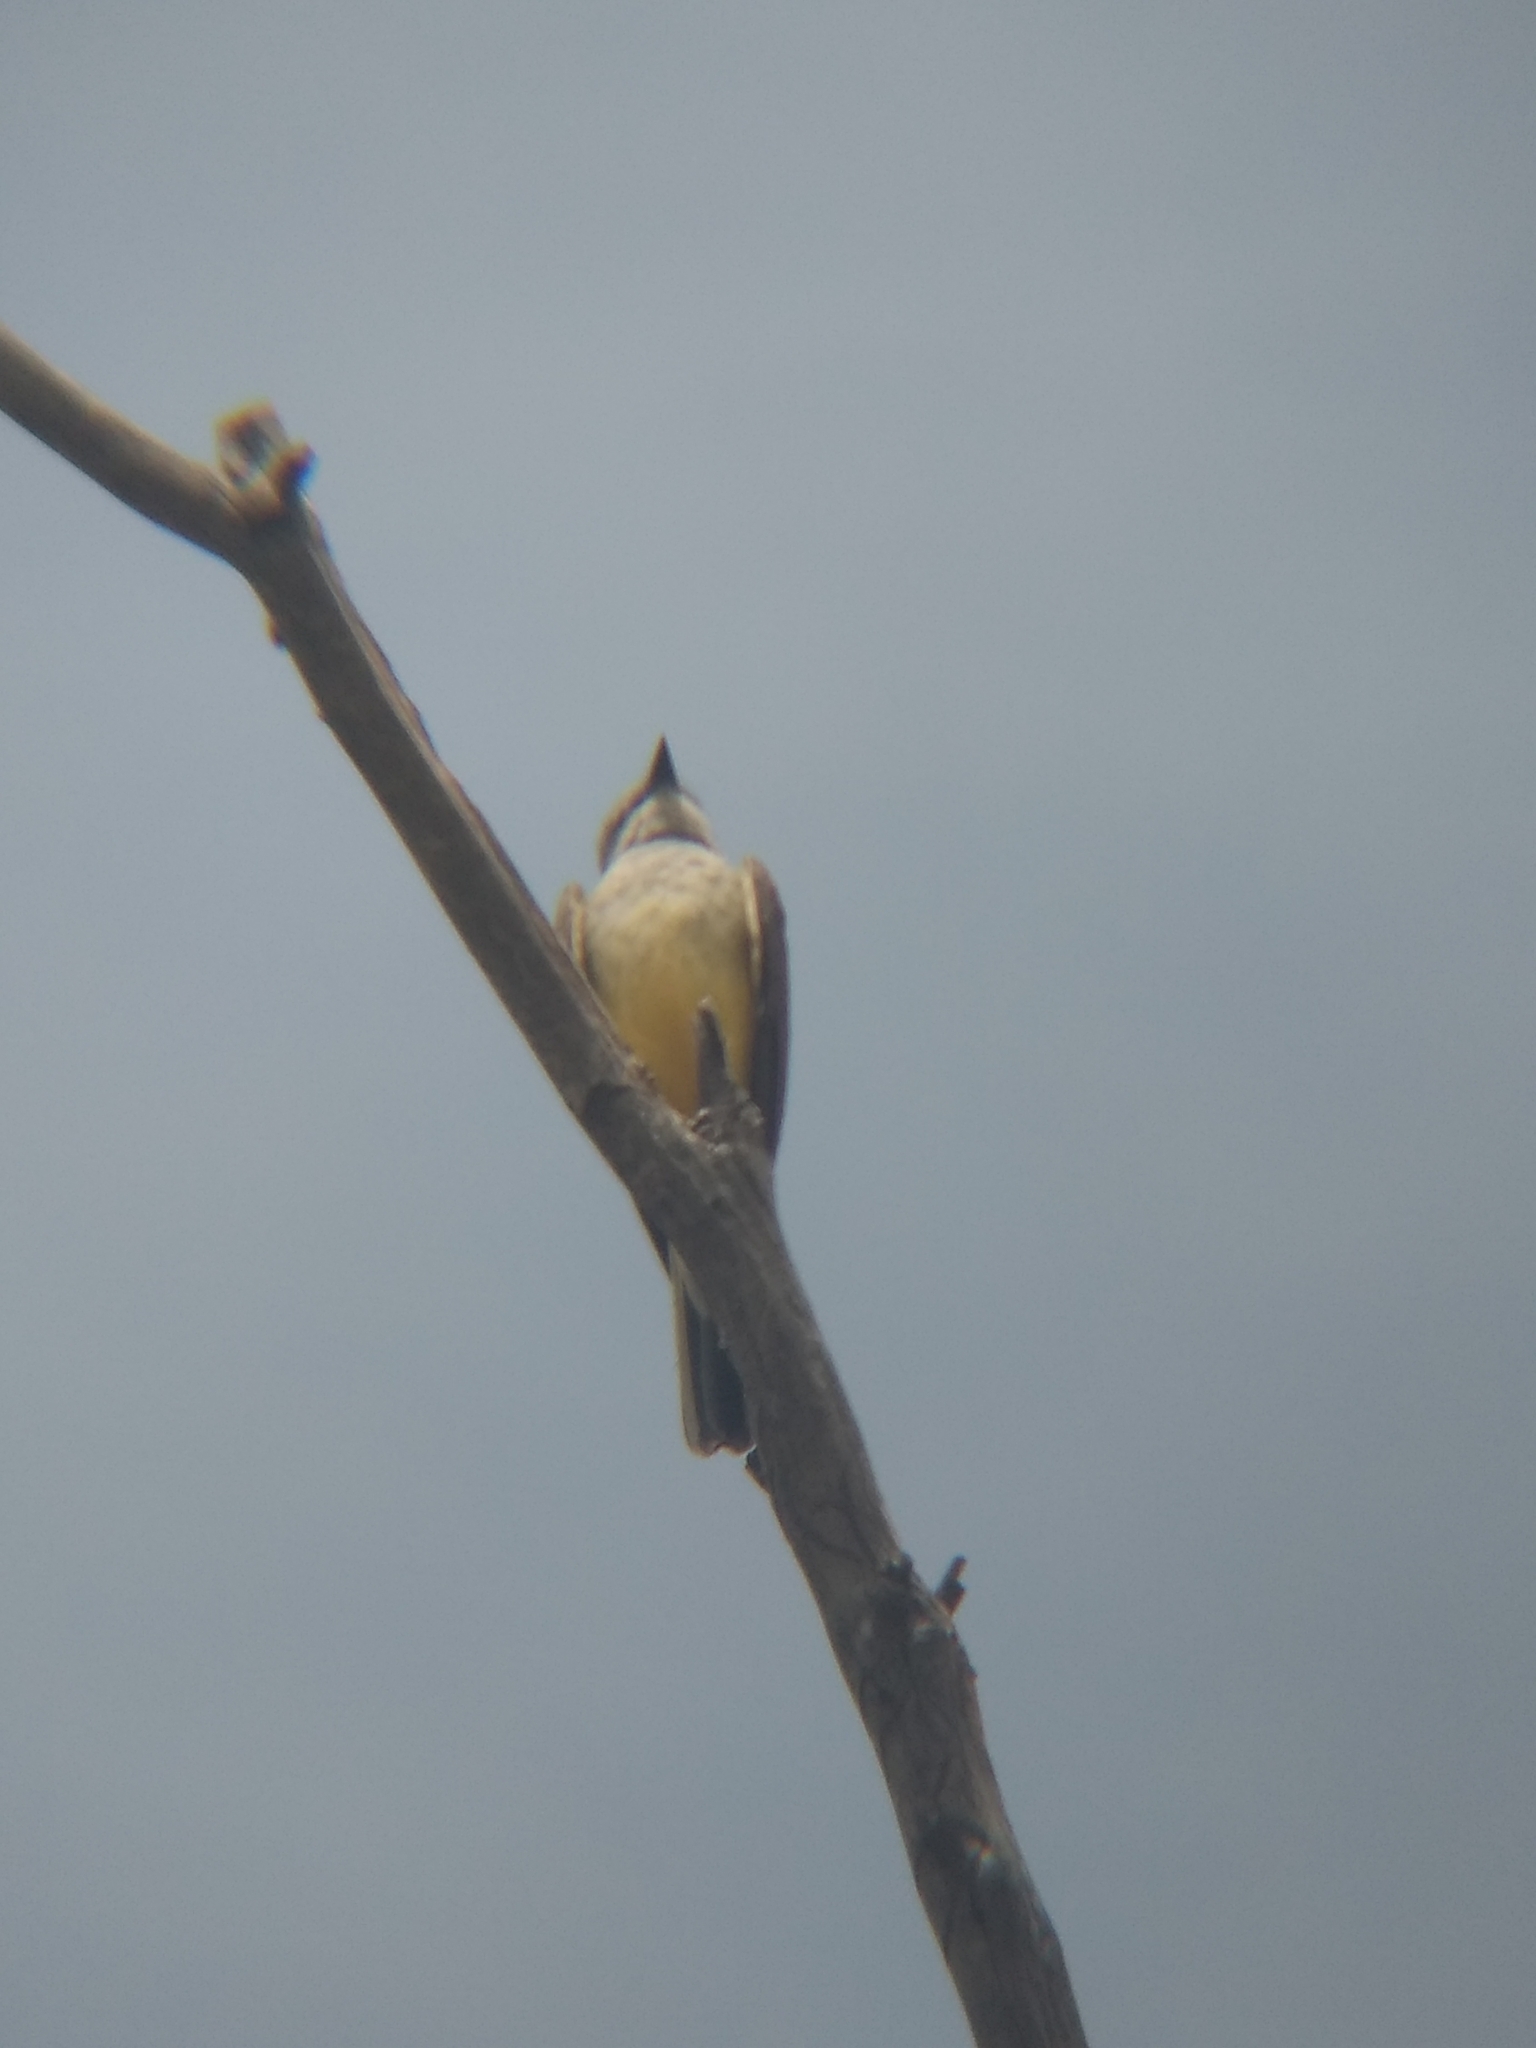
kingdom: Animalia
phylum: Chordata
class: Aves
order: Passeriformes
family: Tyrannidae
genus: Tyrannus
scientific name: Tyrannus verticalis
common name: Western kingbird
